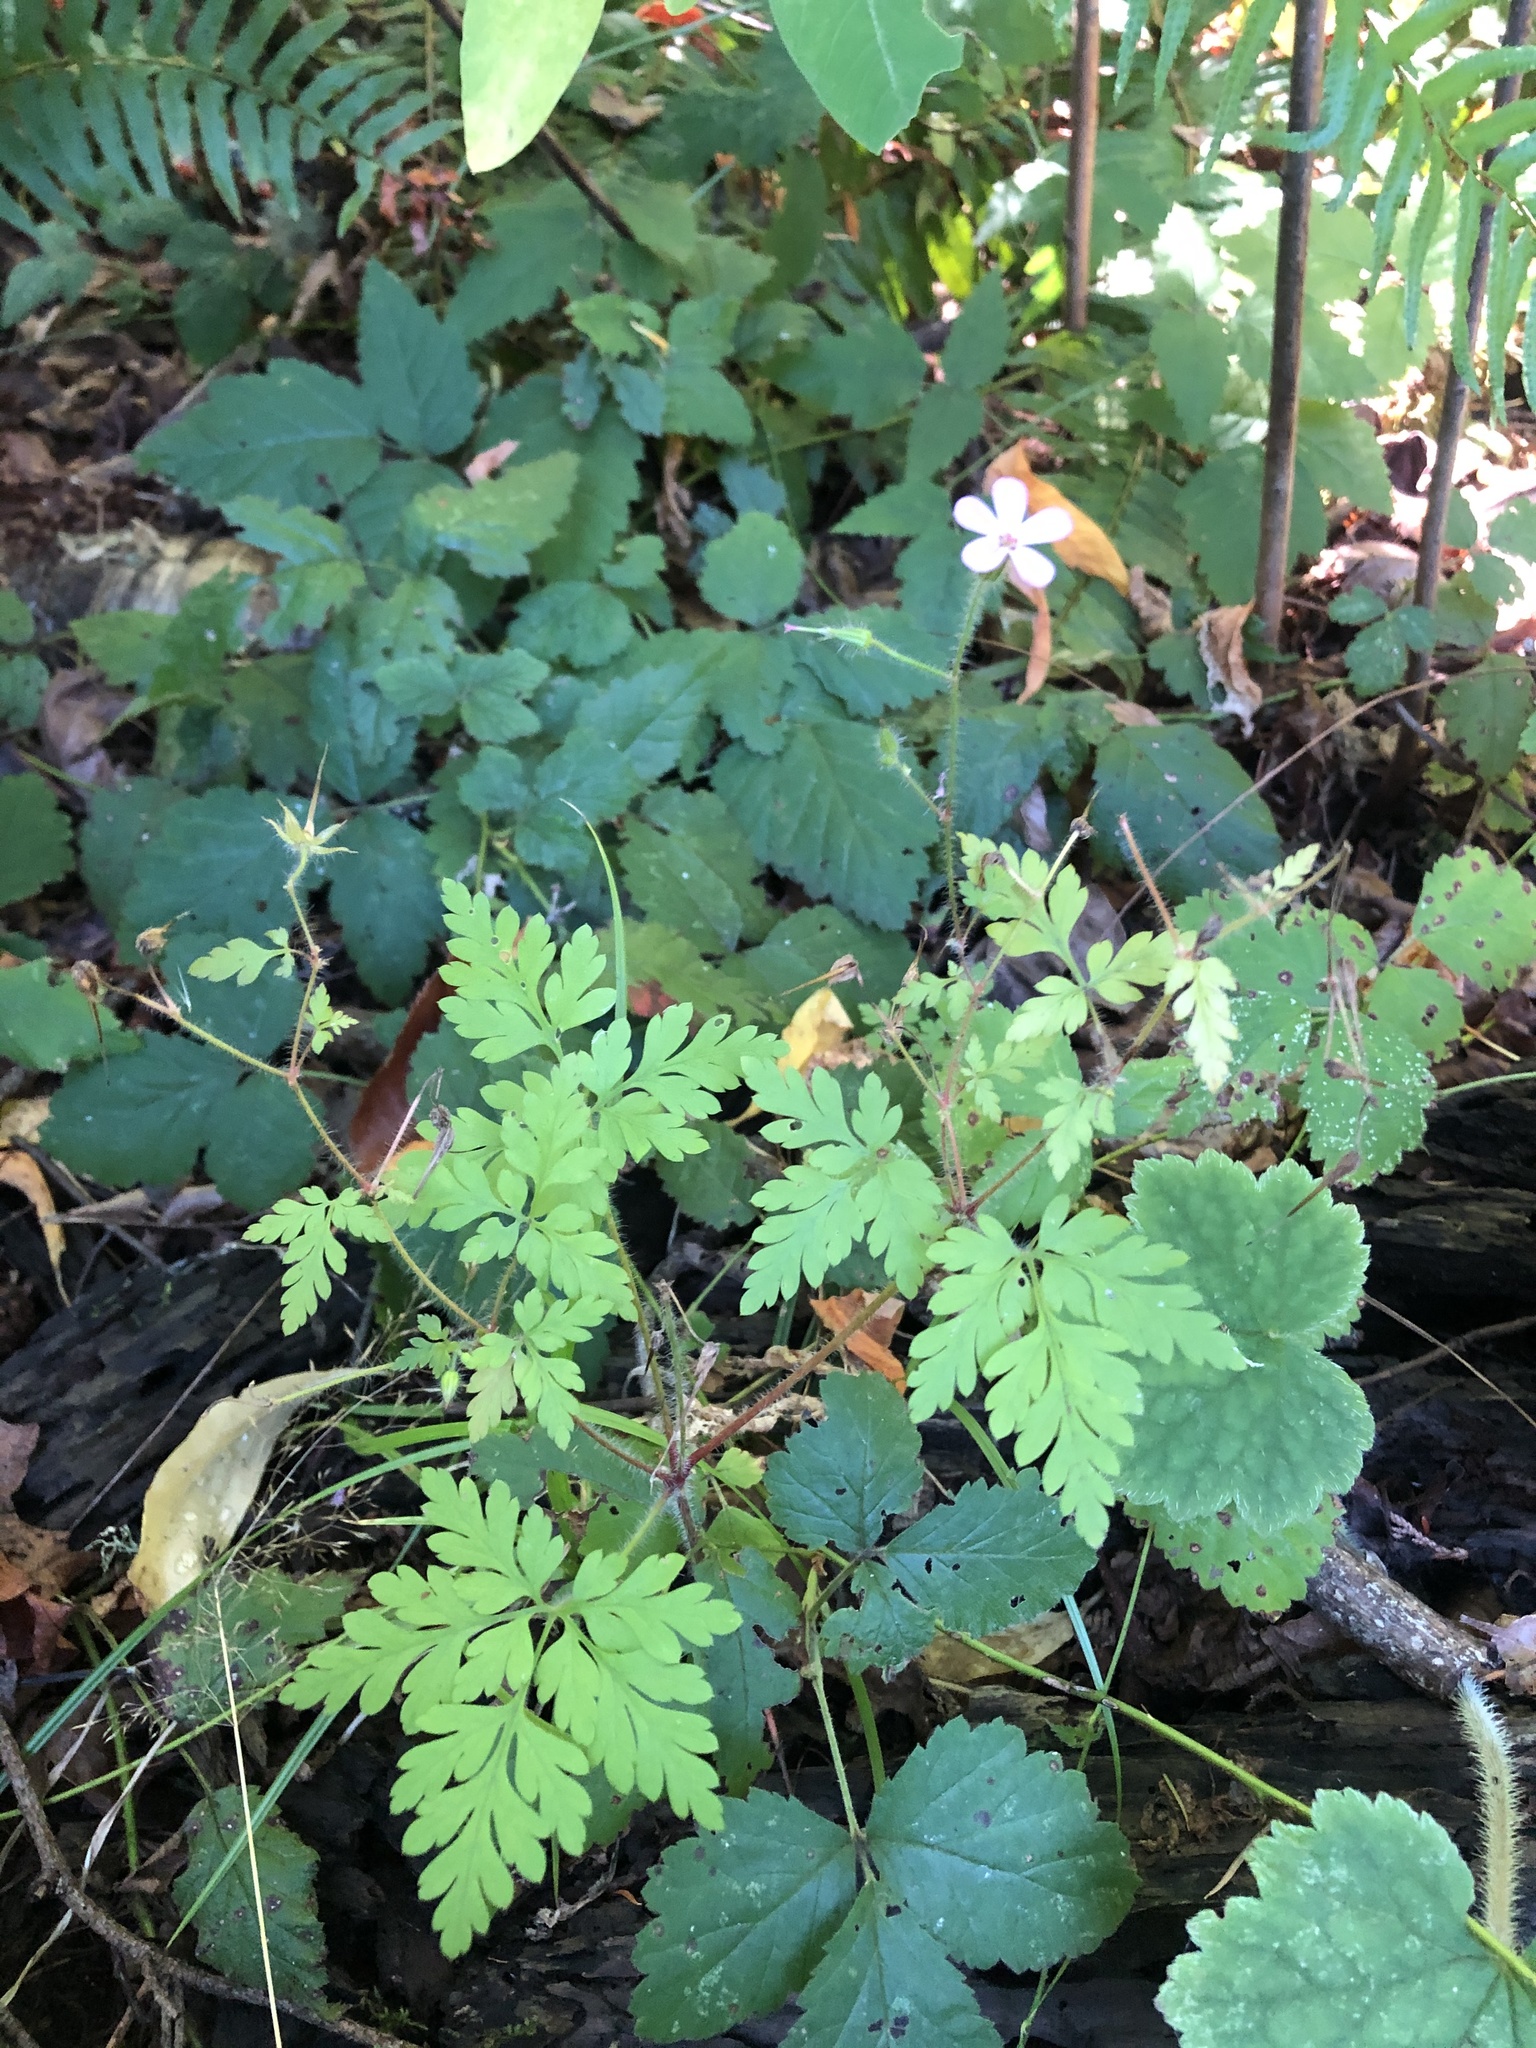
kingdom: Plantae
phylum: Tracheophyta
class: Magnoliopsida
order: Geraniales
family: Geraniaceae
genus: Geranium
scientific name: Geranium robertianum
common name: Herb-robert
